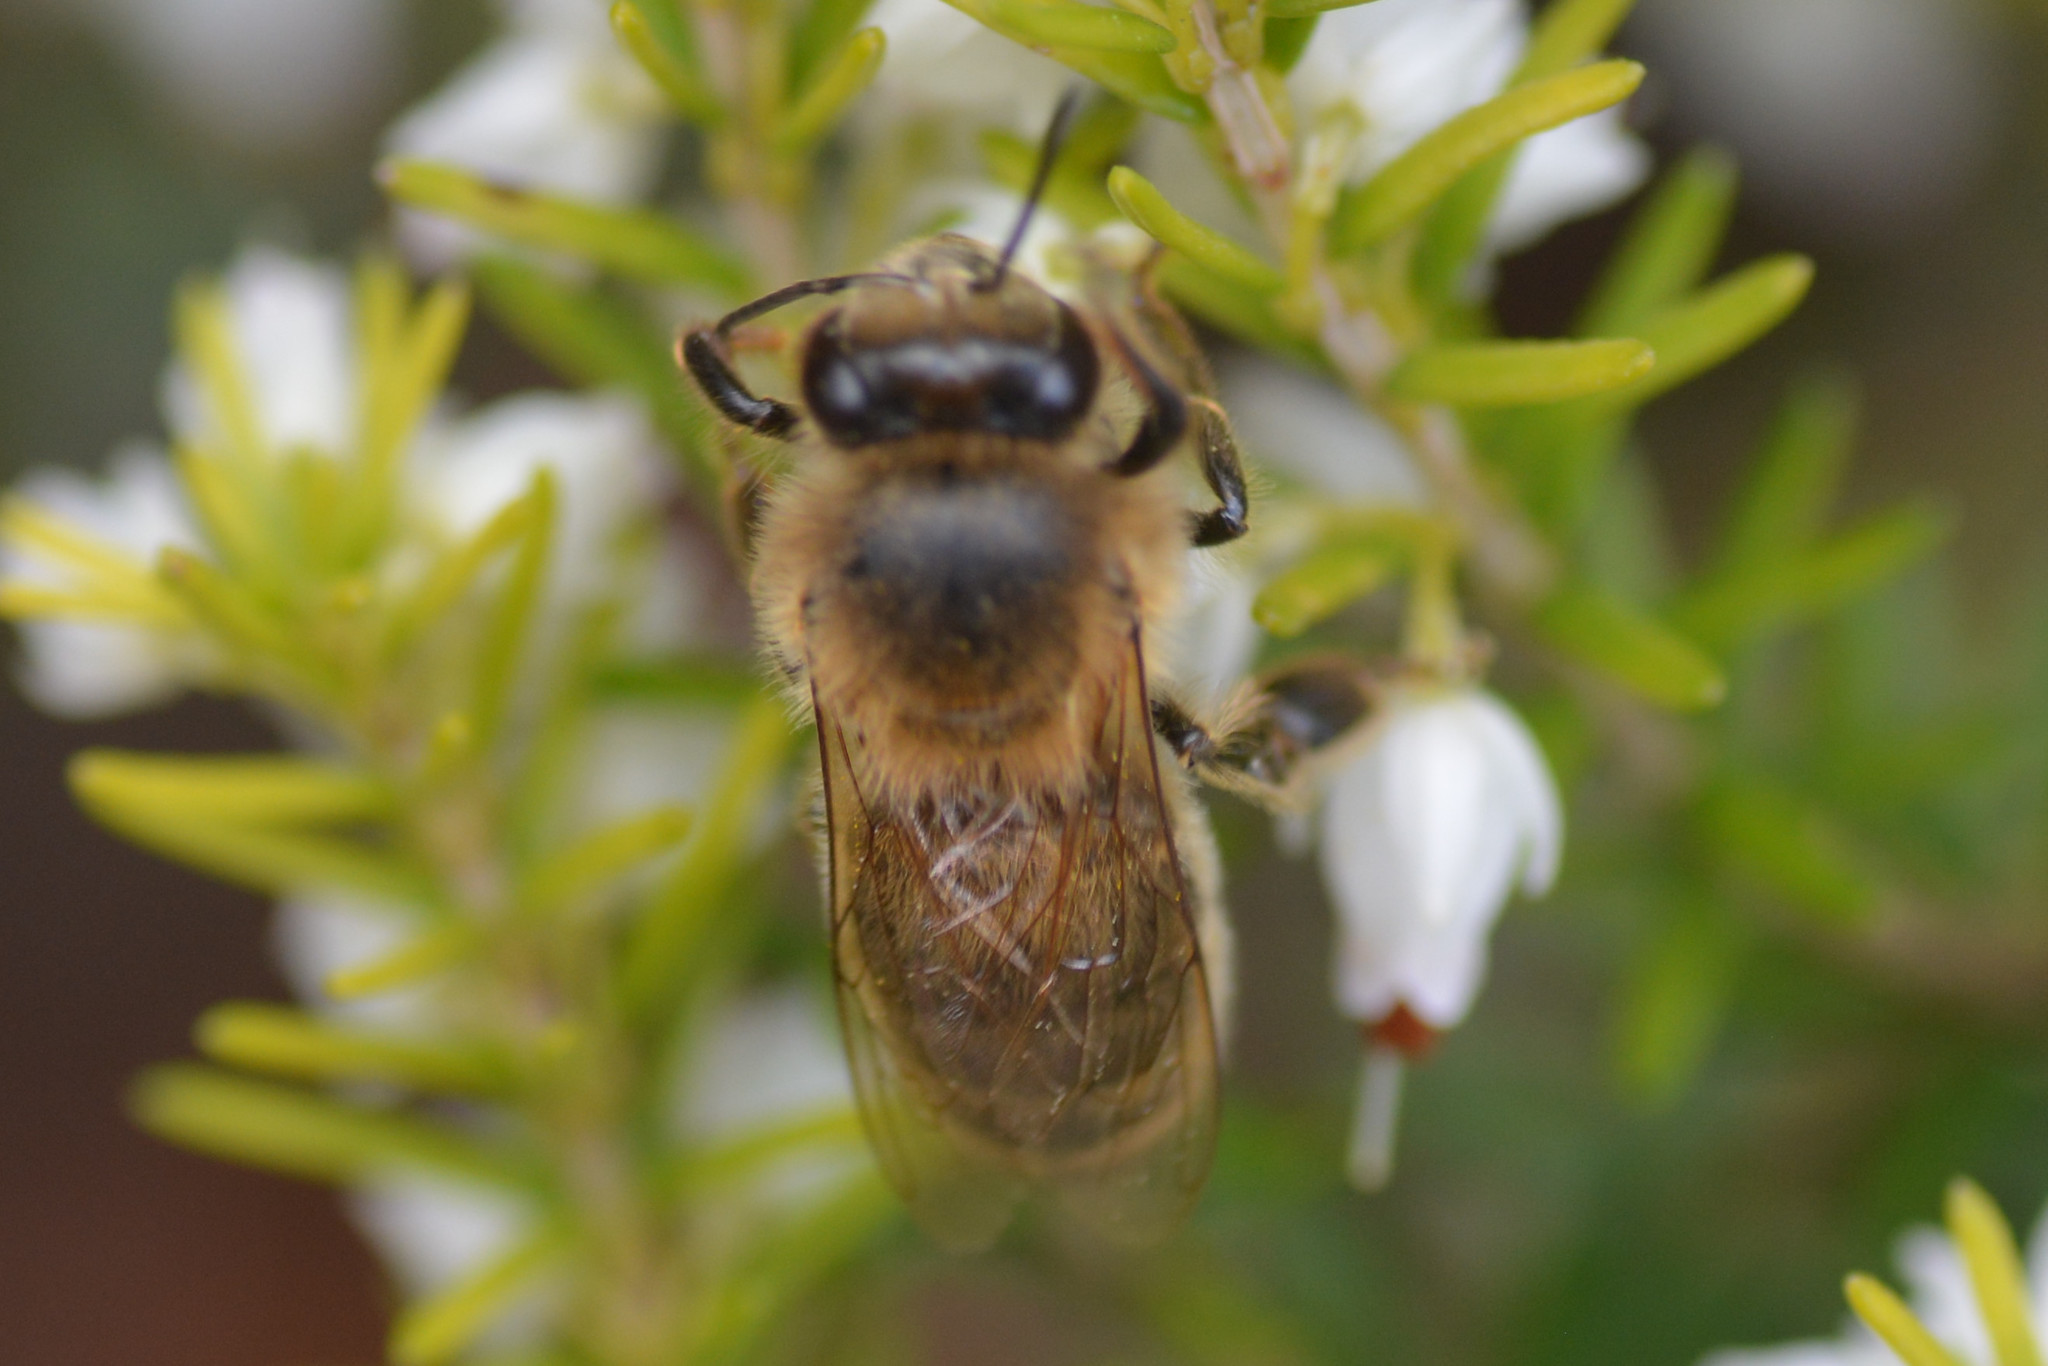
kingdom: Animalia
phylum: Arthropoda
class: Insecta
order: Hymenoptera
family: Apidae
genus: Apis
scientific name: Apis mellifera
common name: Honey bee
